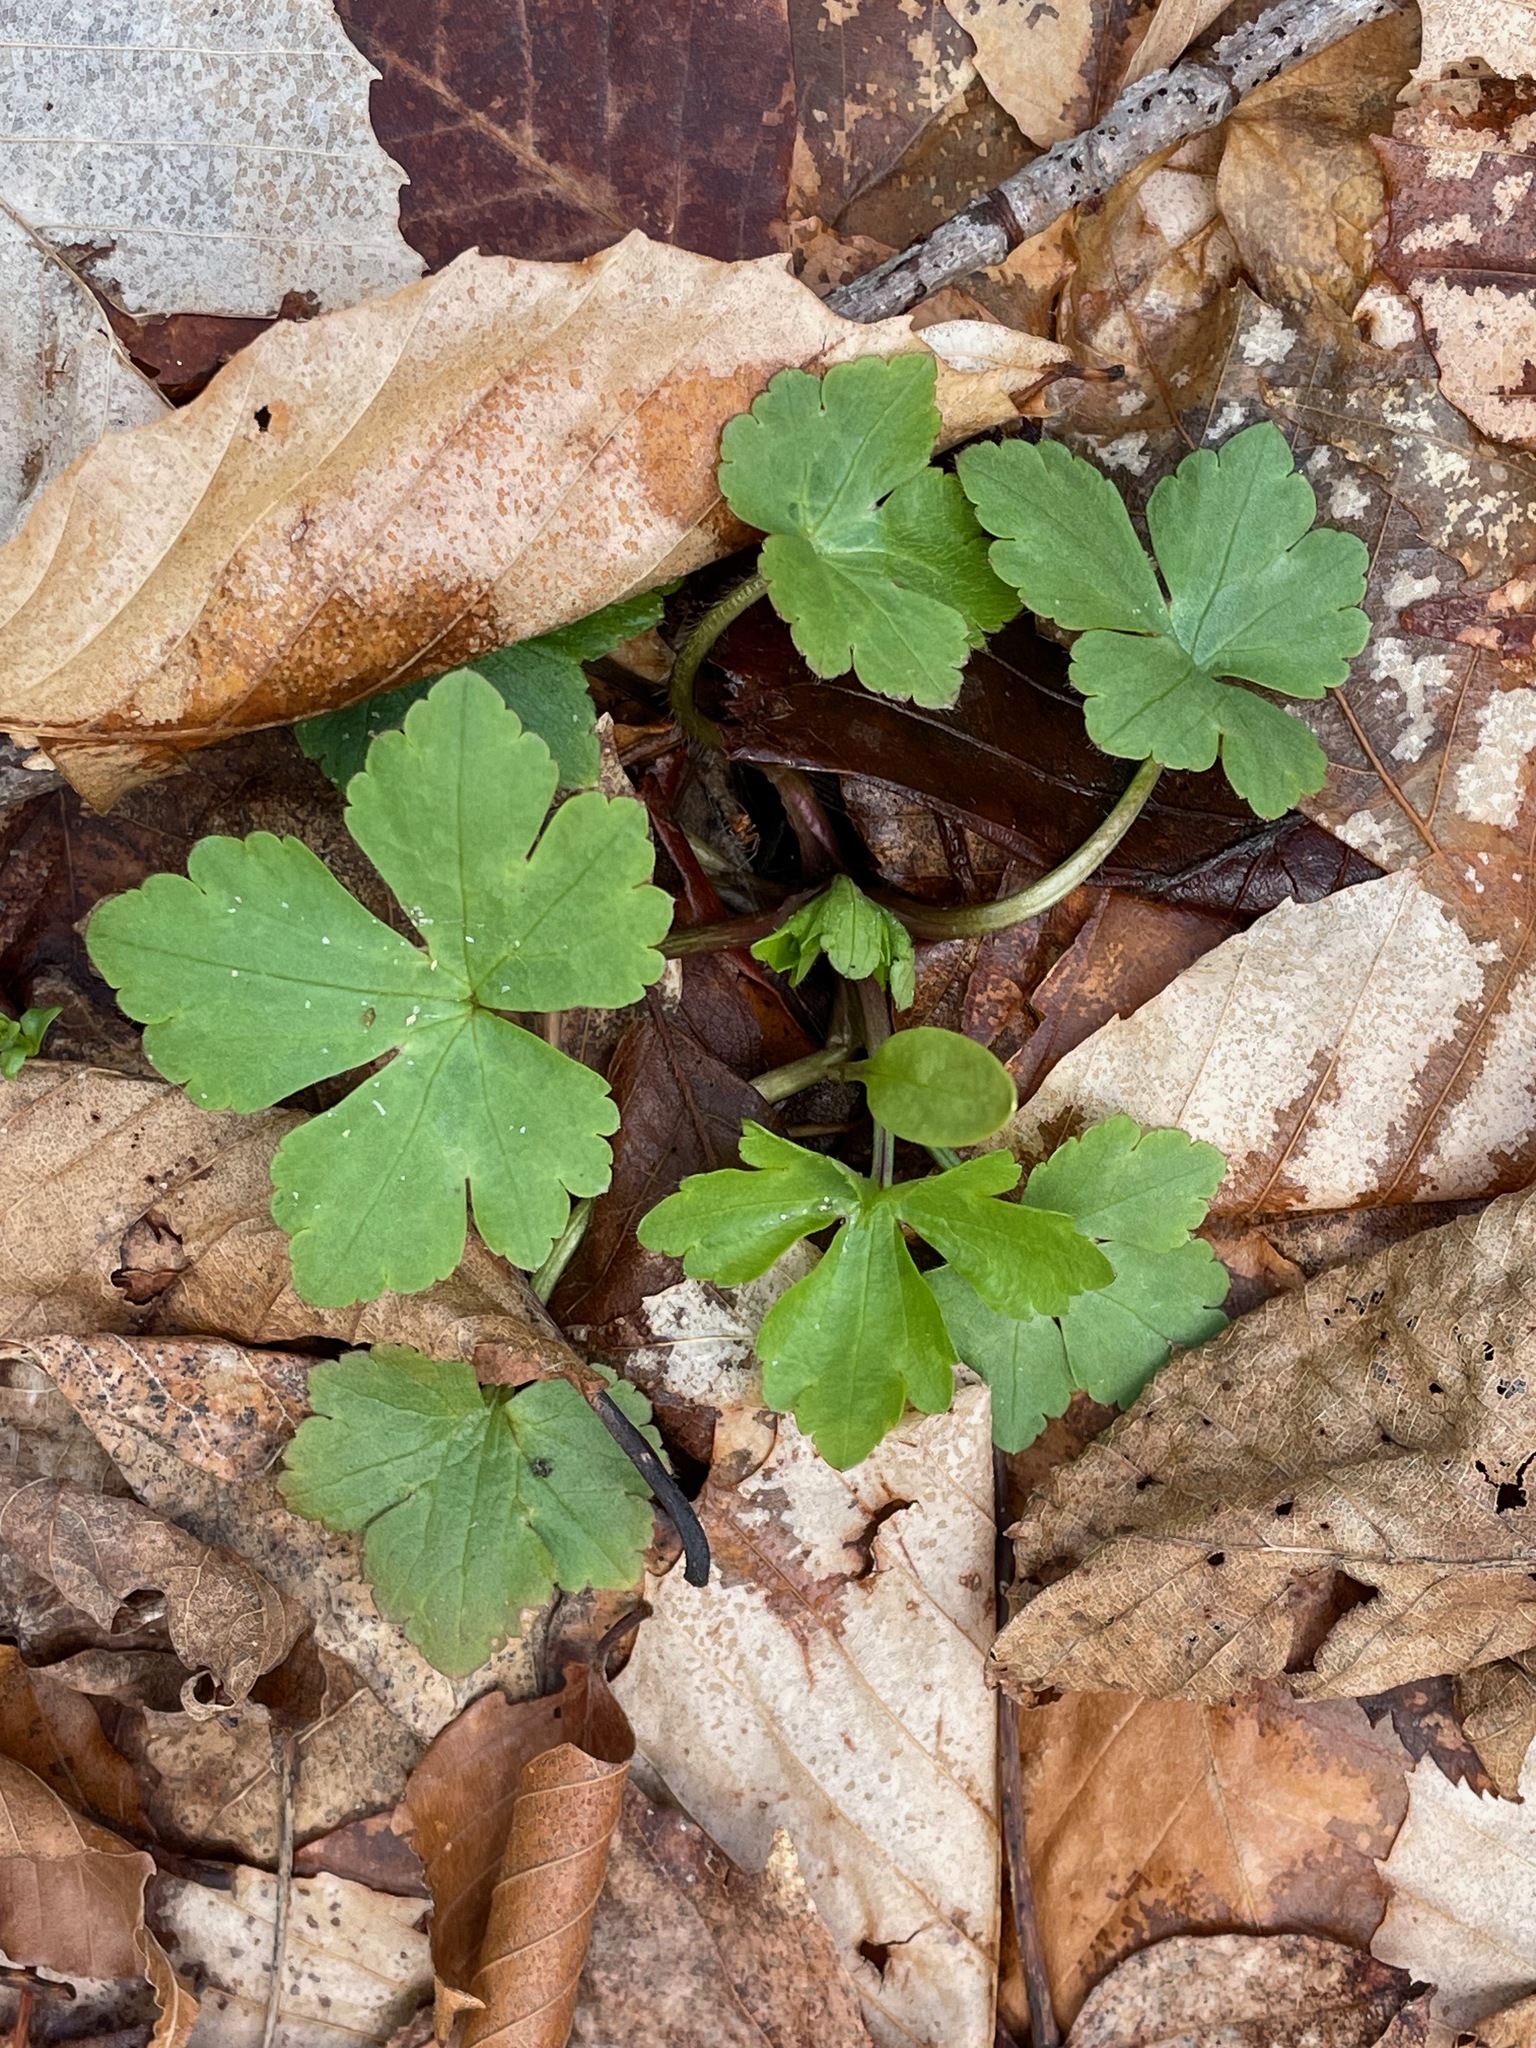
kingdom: Plantae
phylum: Tracheophyta
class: Magnoliopsida
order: Ranunculales
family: Ranunculaceae
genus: Ranunculus
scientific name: Ranunculus recurvatus
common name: Blisterwort
